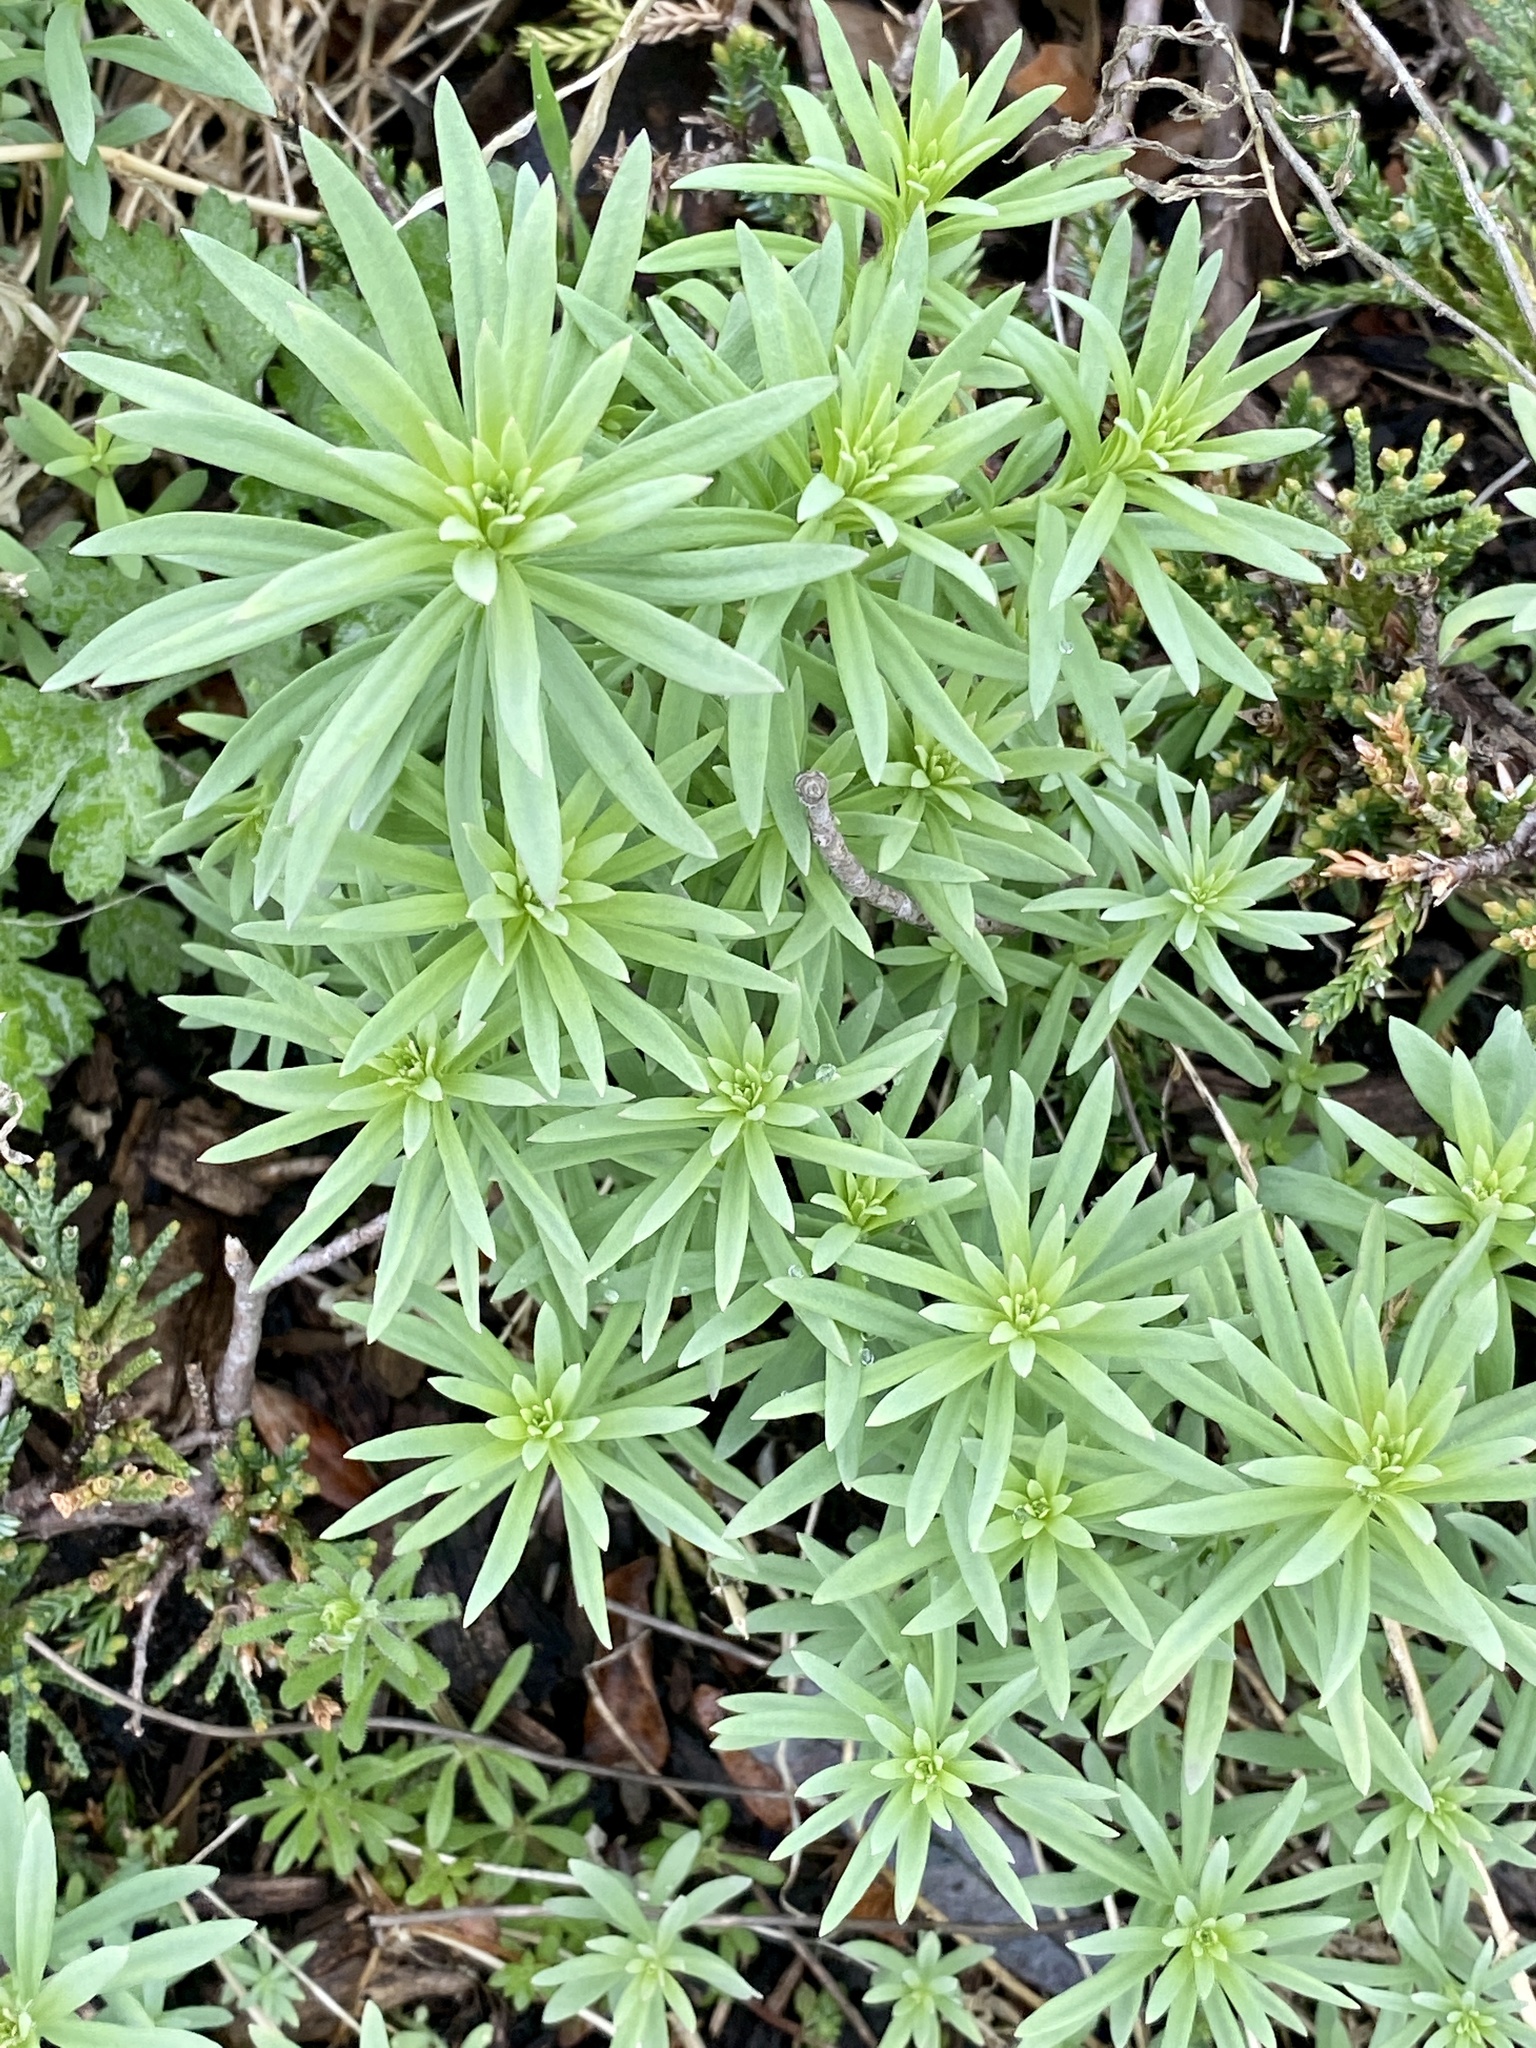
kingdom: Plantae
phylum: Tracheophyta
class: Magnoliopsida
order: Lamiales
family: Plantaginaceae
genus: Linaria
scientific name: Linaria vulgaris
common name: Butter and eggs
